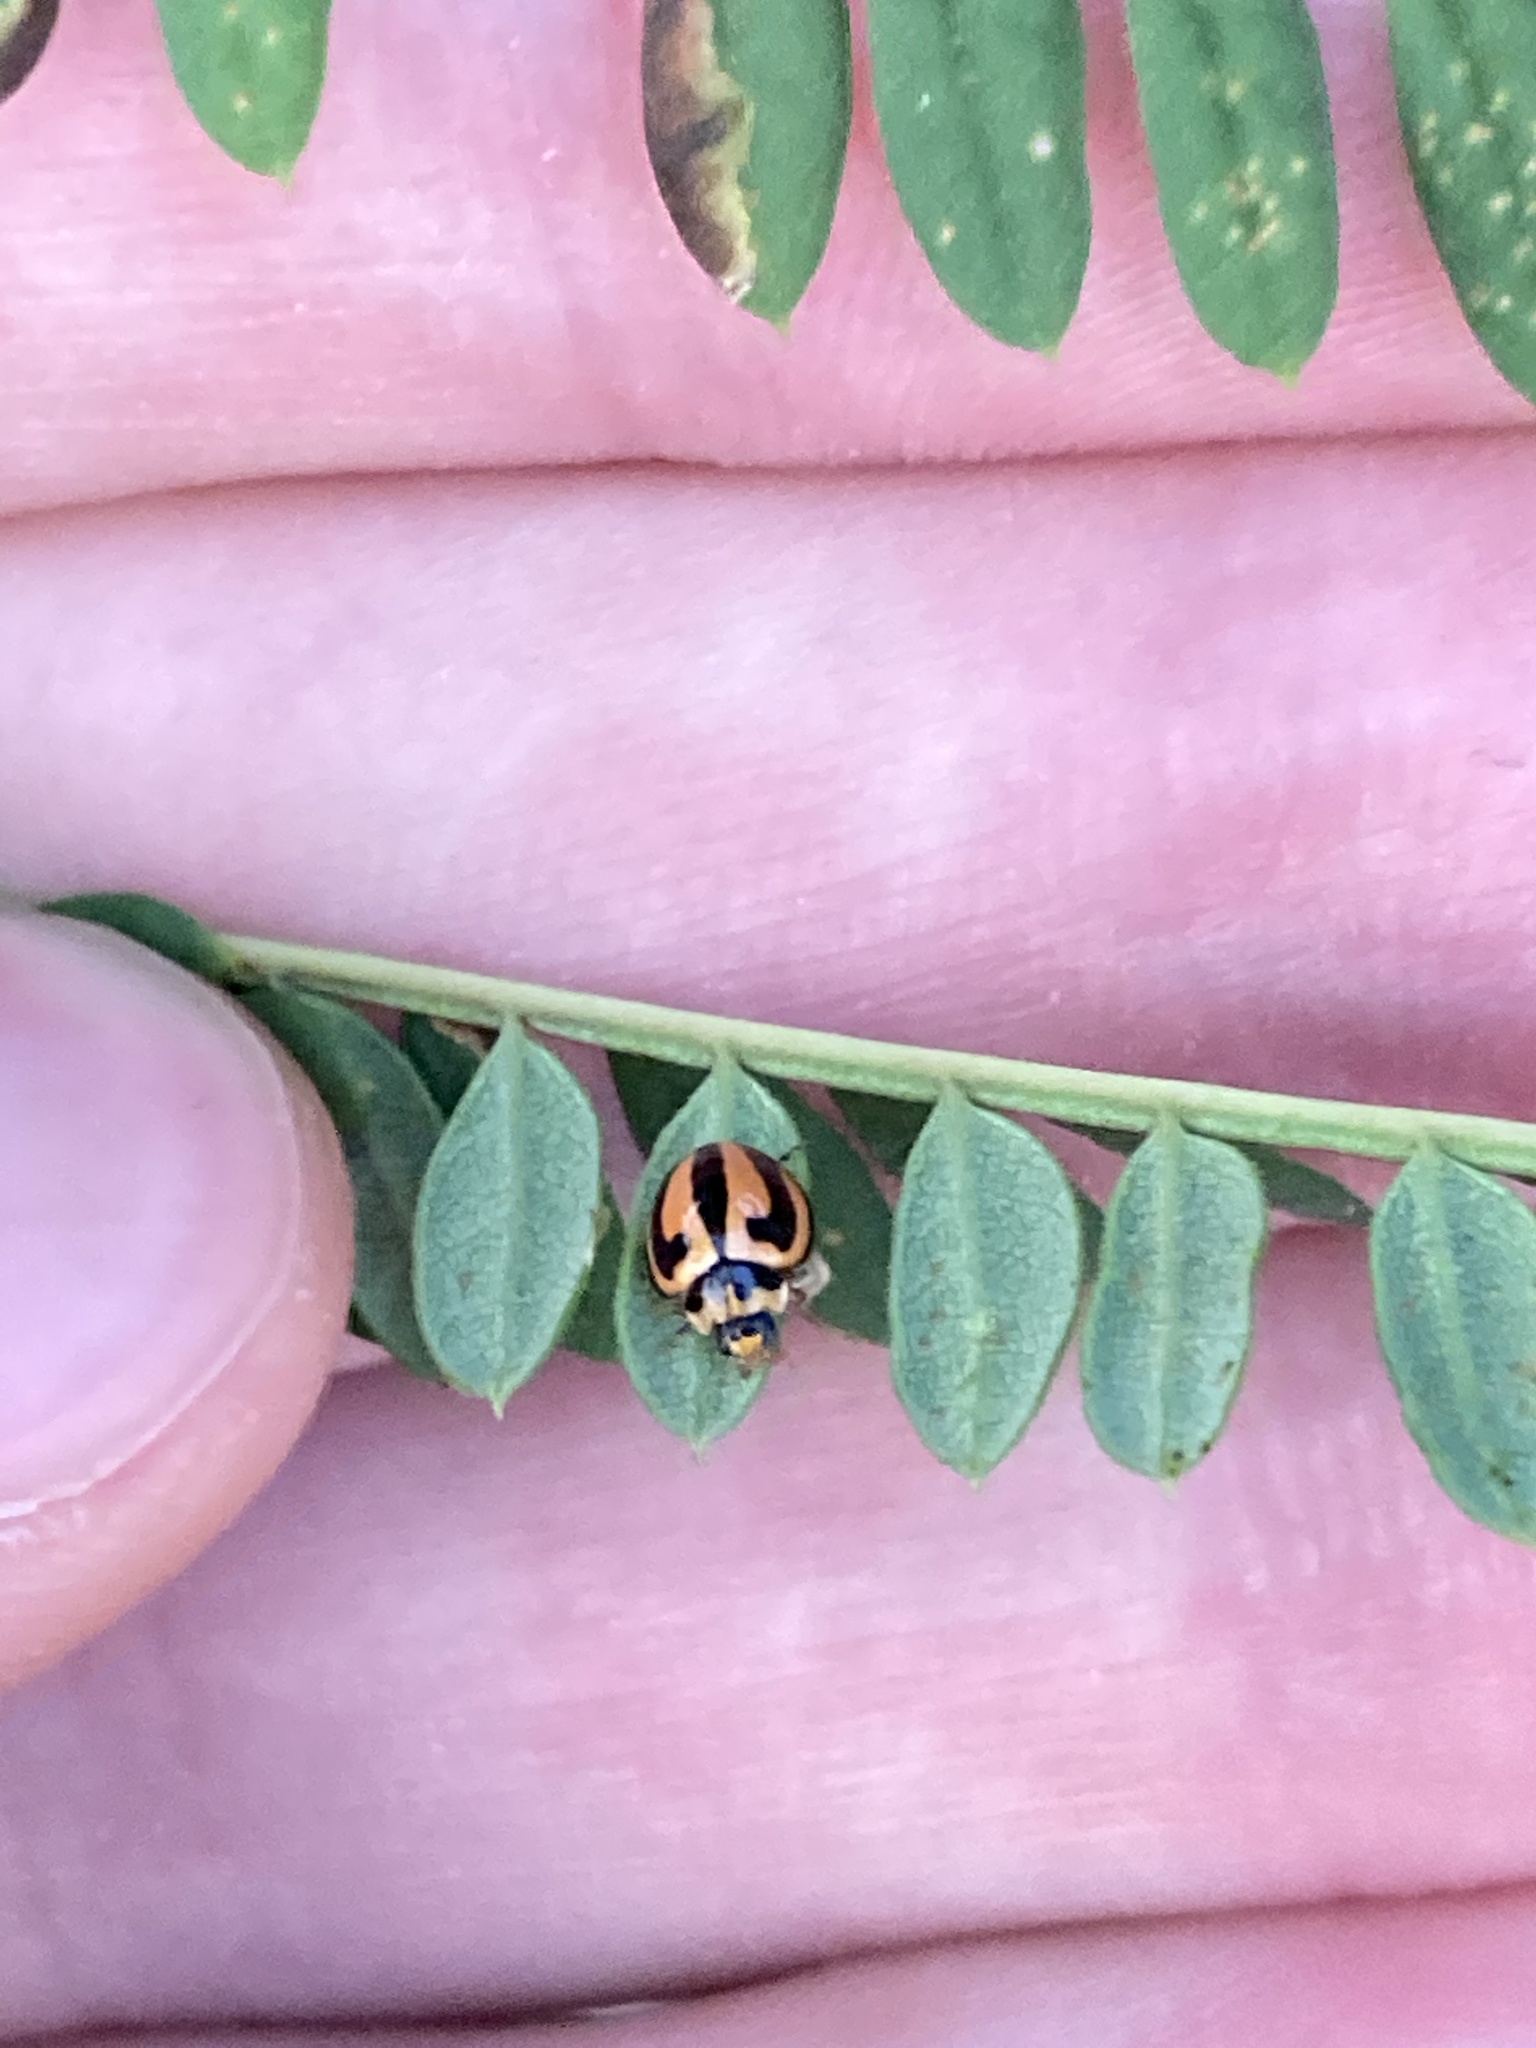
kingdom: Animalia
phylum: Arthropoda
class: Insecta
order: Coleoptera
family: Coccinellidae
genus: Micraspis
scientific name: Micraspis frenata
